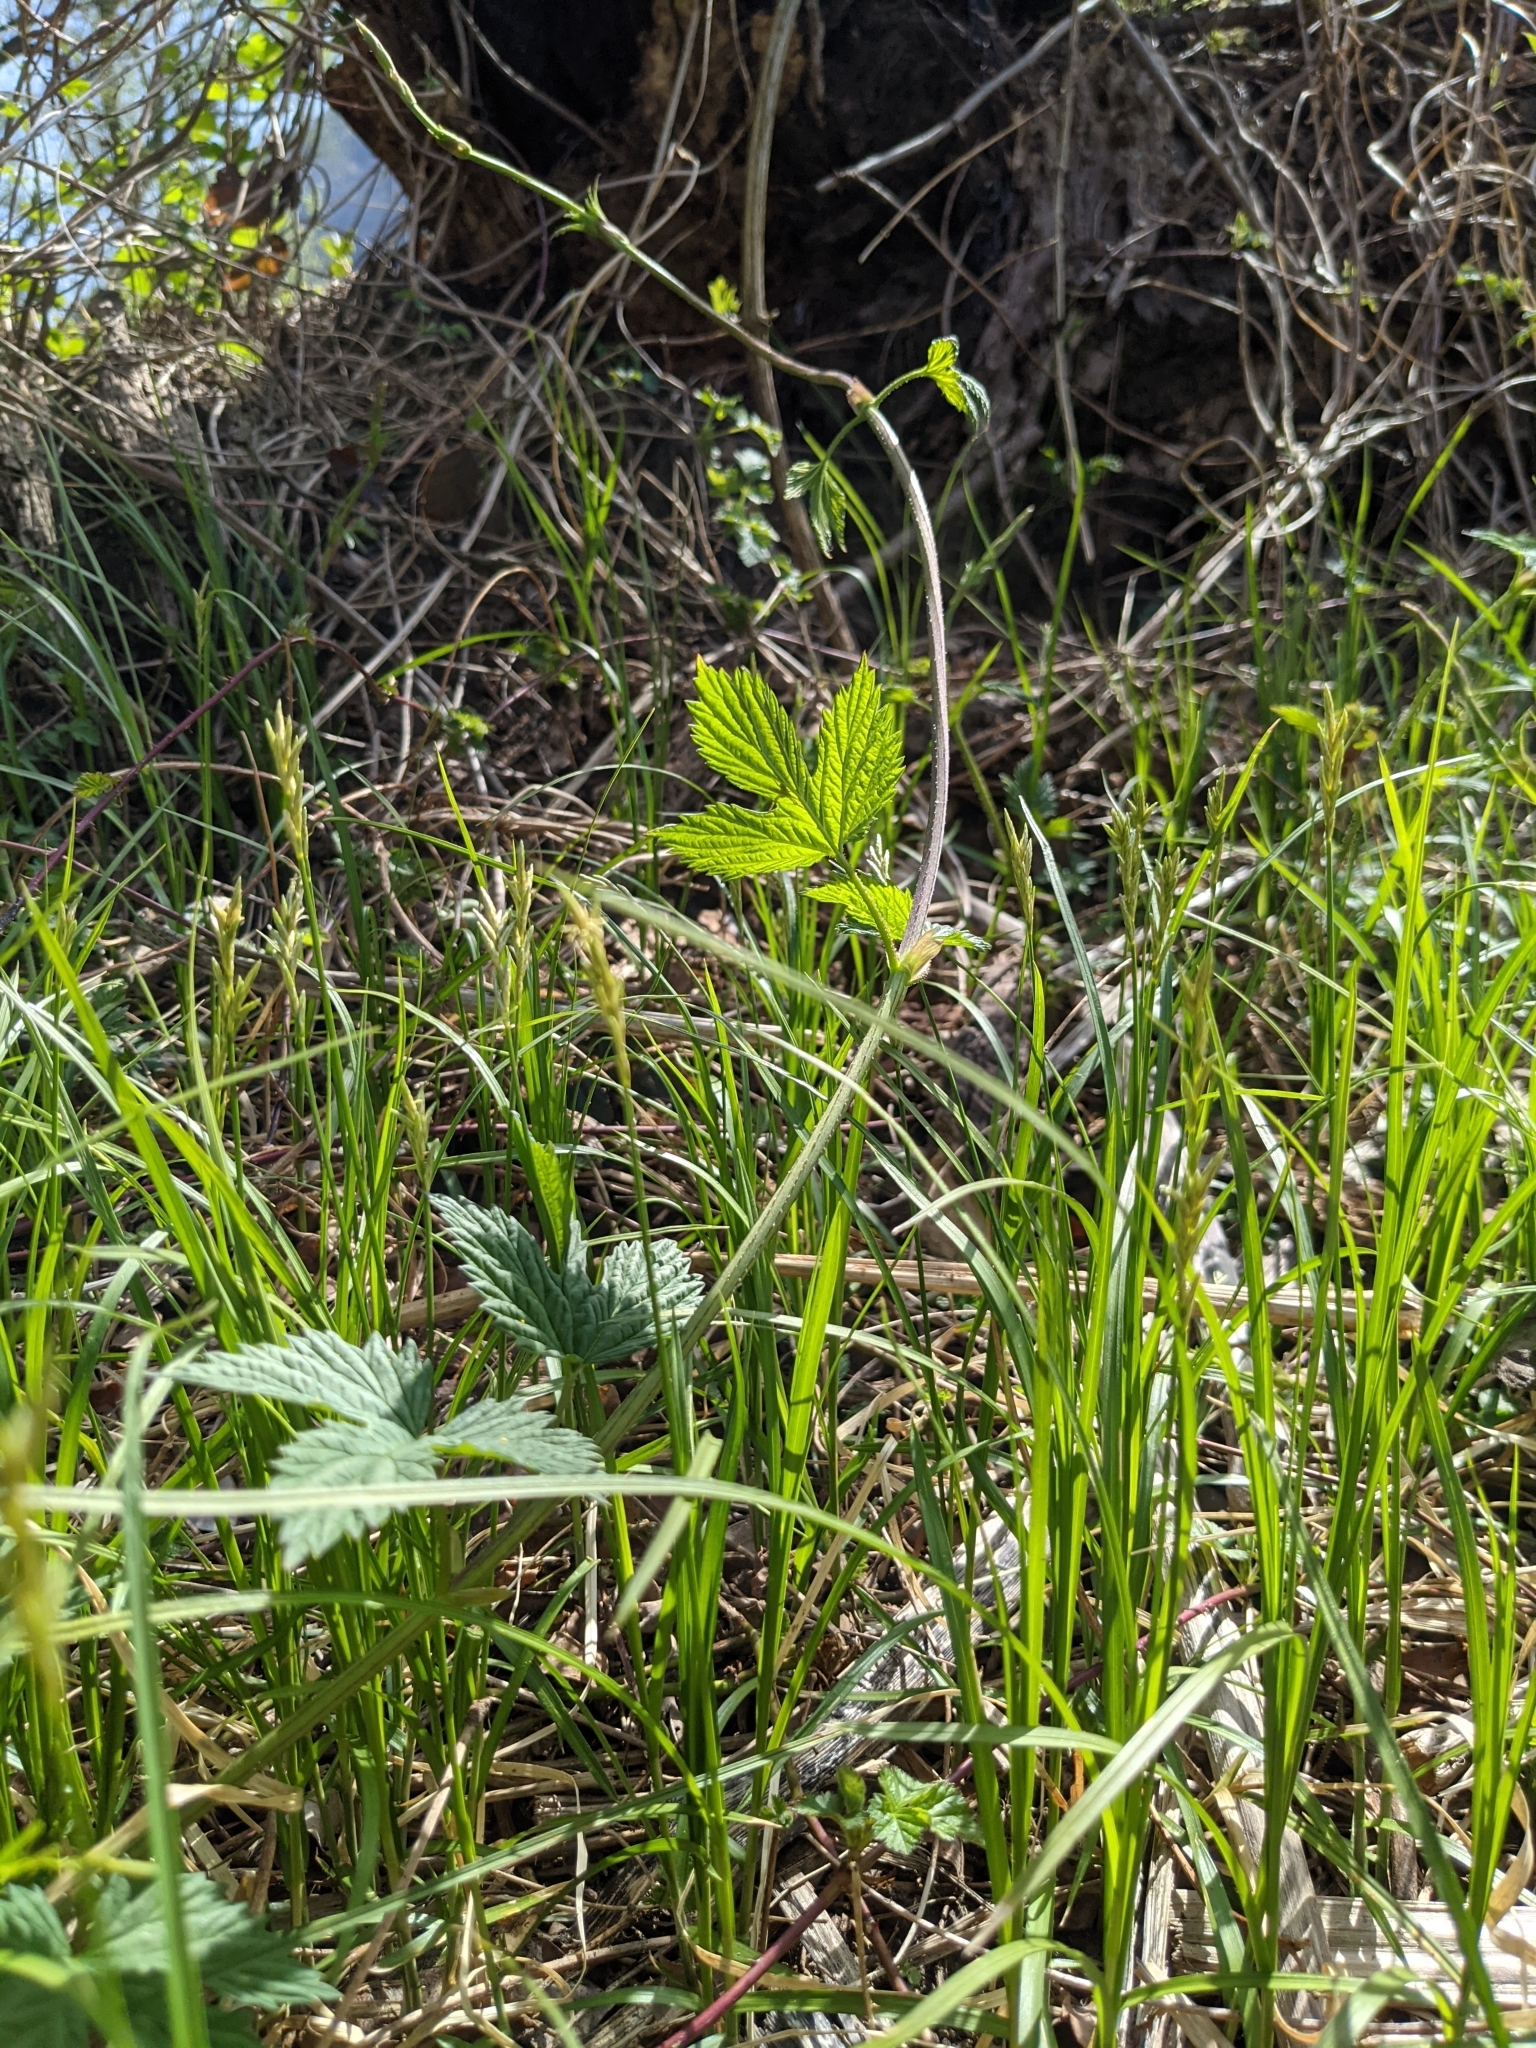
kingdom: Plantae
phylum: Tracheophyta
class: Magnoliopsida
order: Rosales
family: Cannabaceae
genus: Humulus
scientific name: Humulus lupulus
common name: Hop
